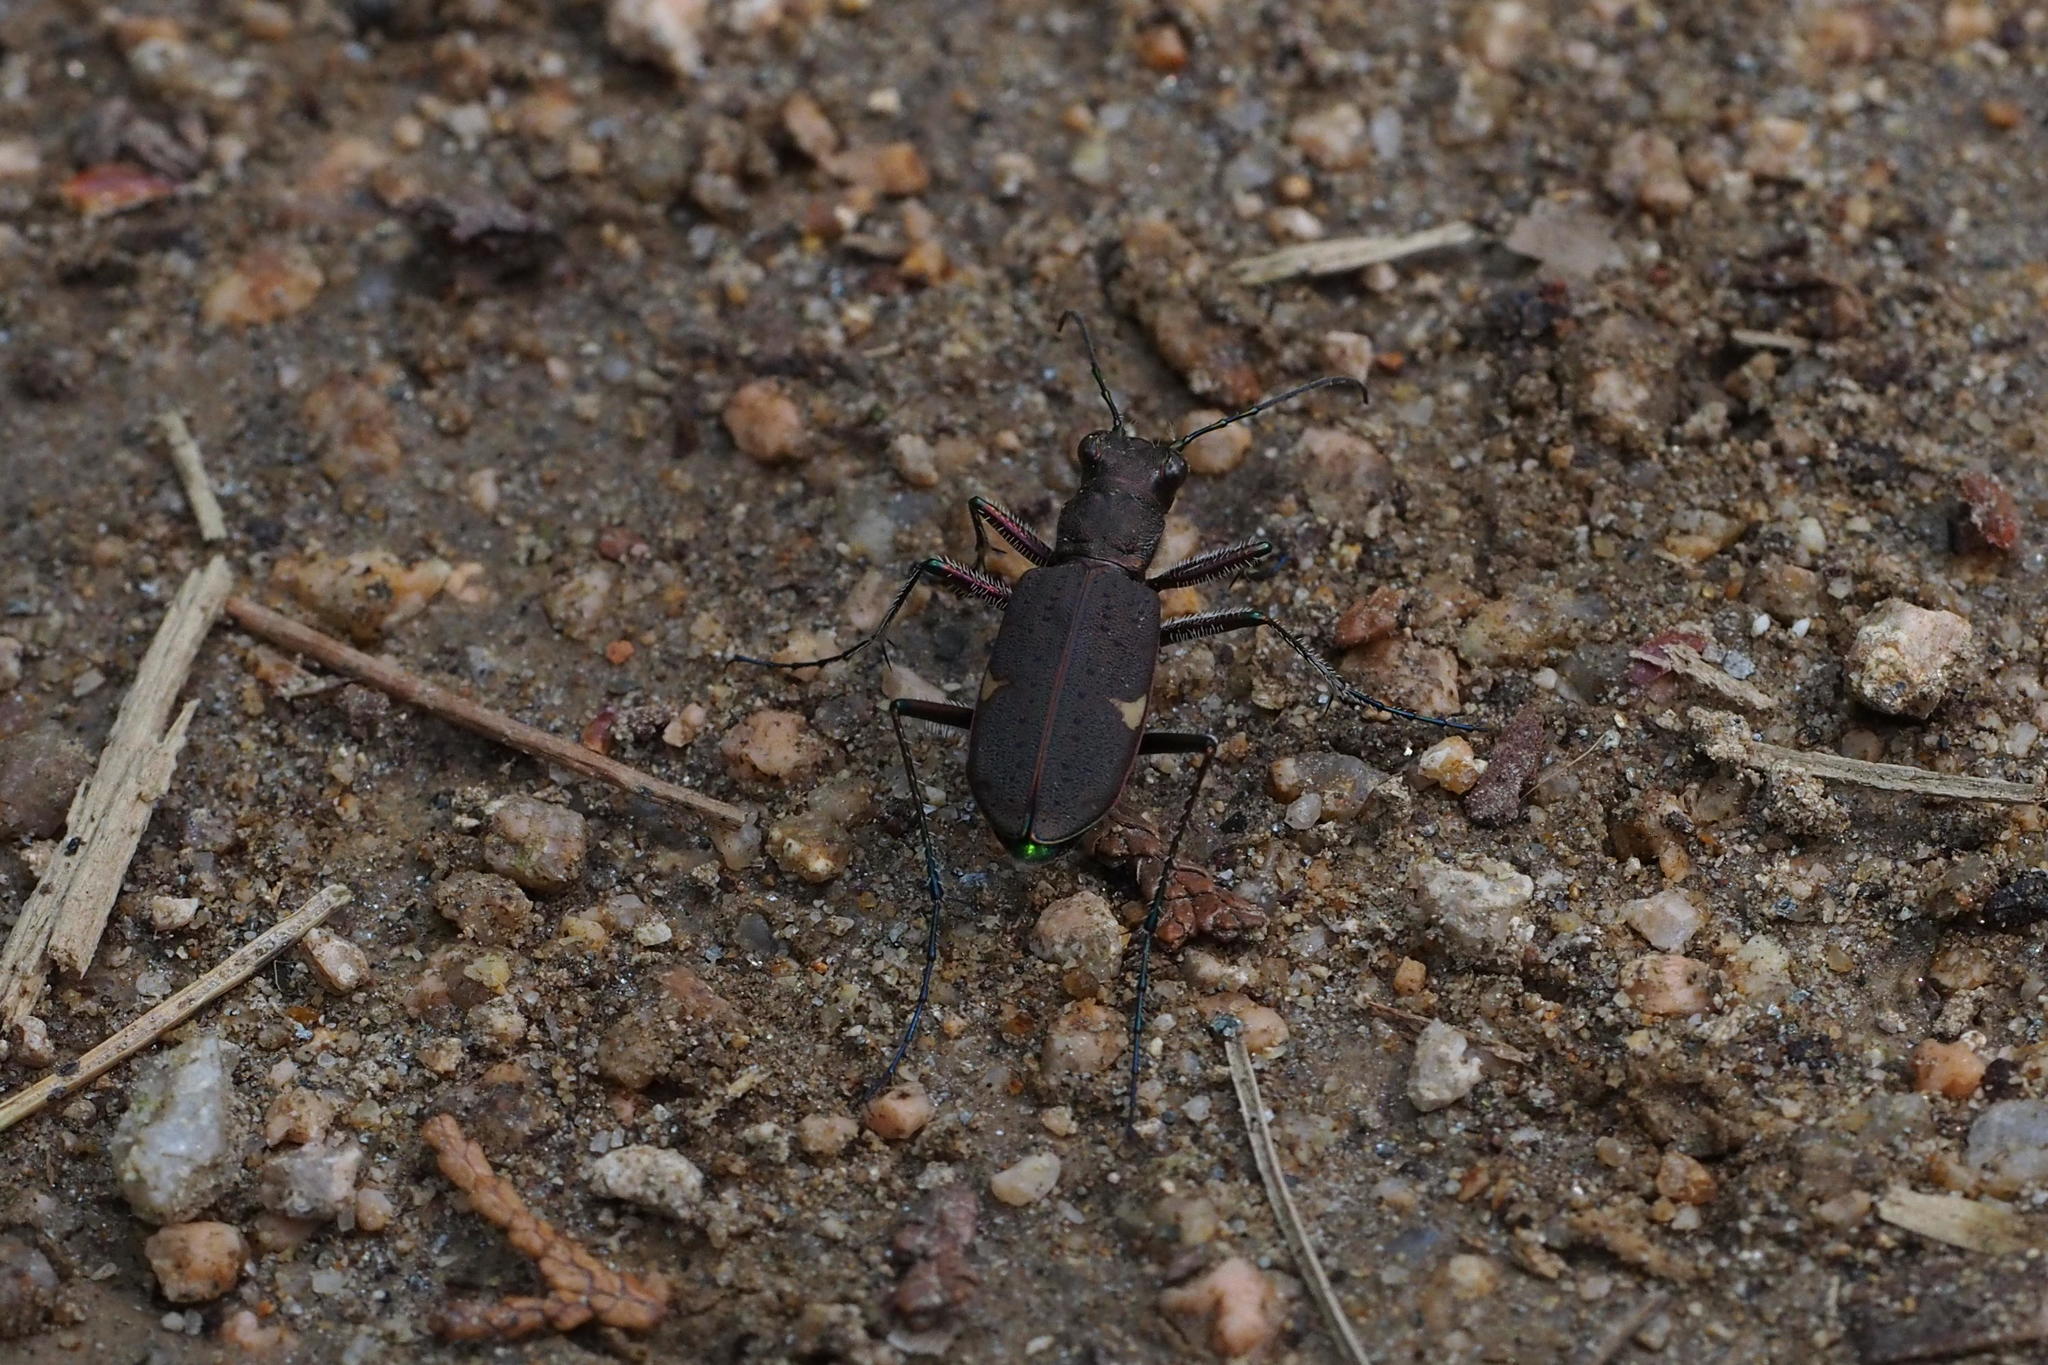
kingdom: Animalia
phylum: Arthropoda
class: Insecta
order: Coleoptera
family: Carabidae
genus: Cicindela
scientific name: Cicindela japana
